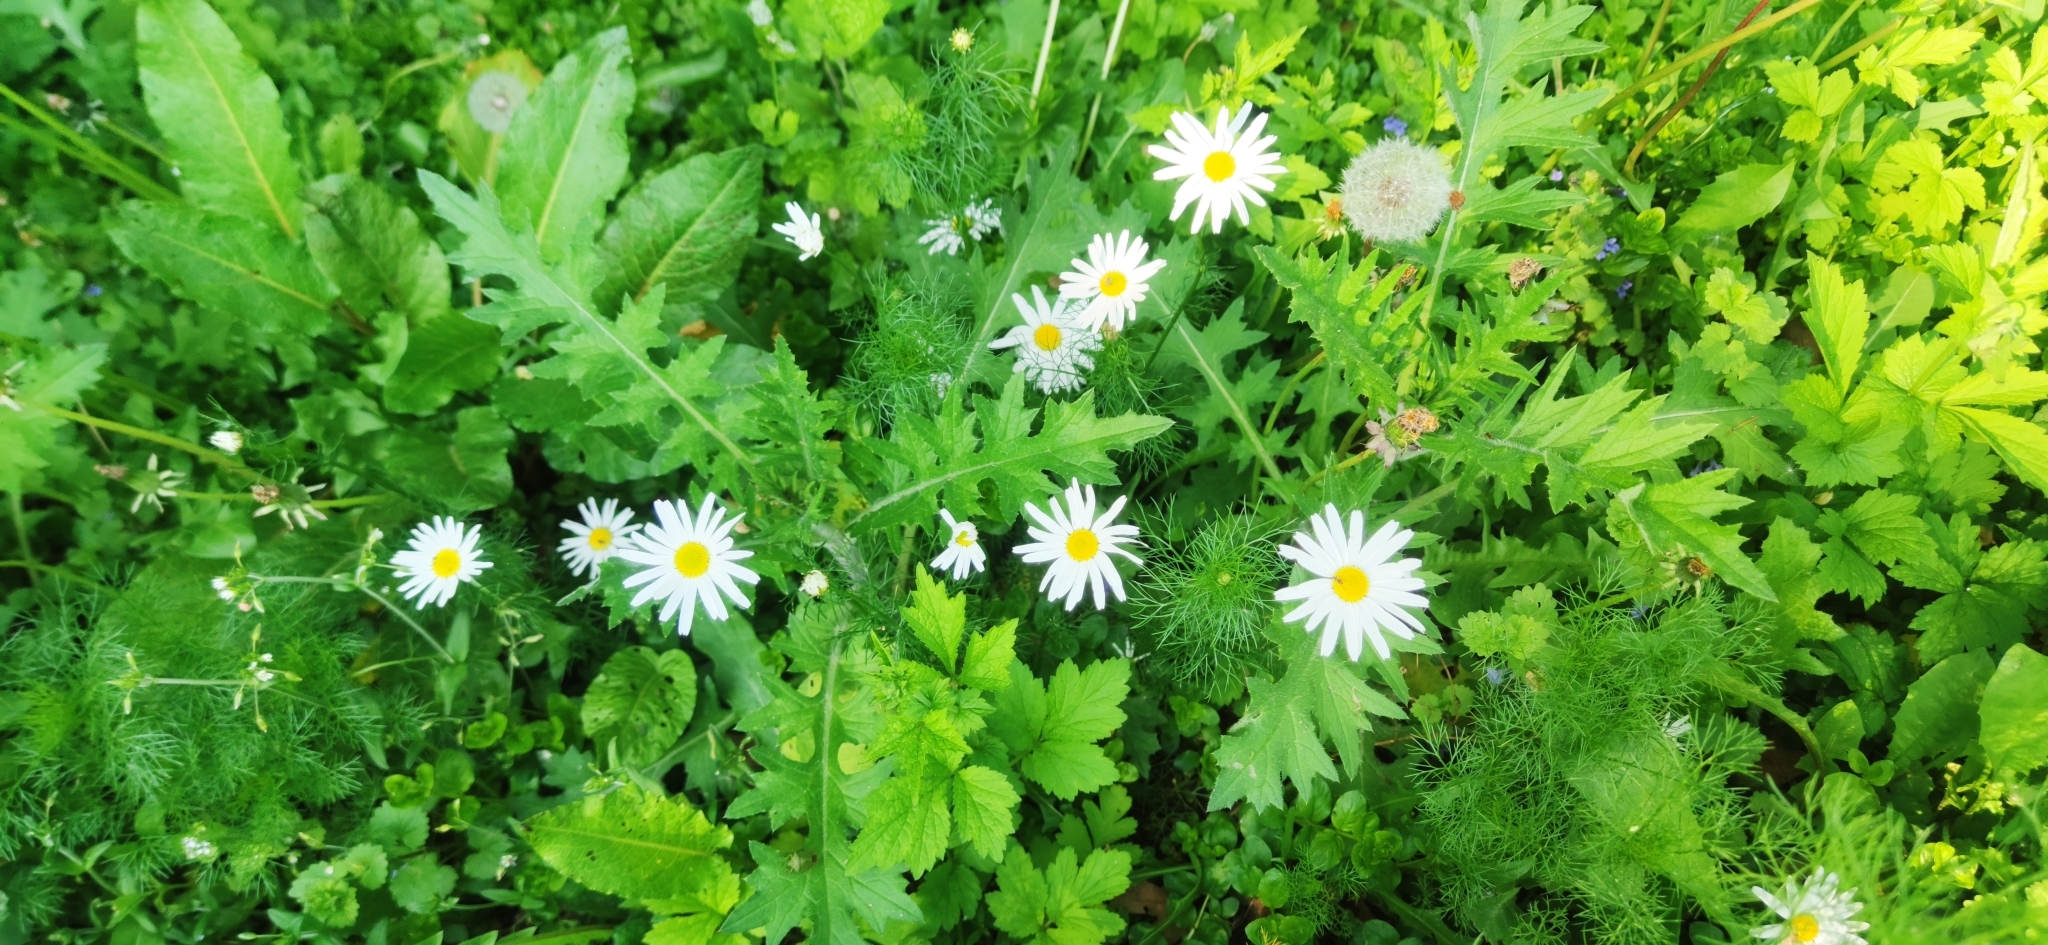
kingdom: Plantae
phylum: Tracheophyta
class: Magnoliopsida
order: Asterales
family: Asteraceae
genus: Tripleurospermum
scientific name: Tripleurospermum inodorum
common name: Scentless mayweed
